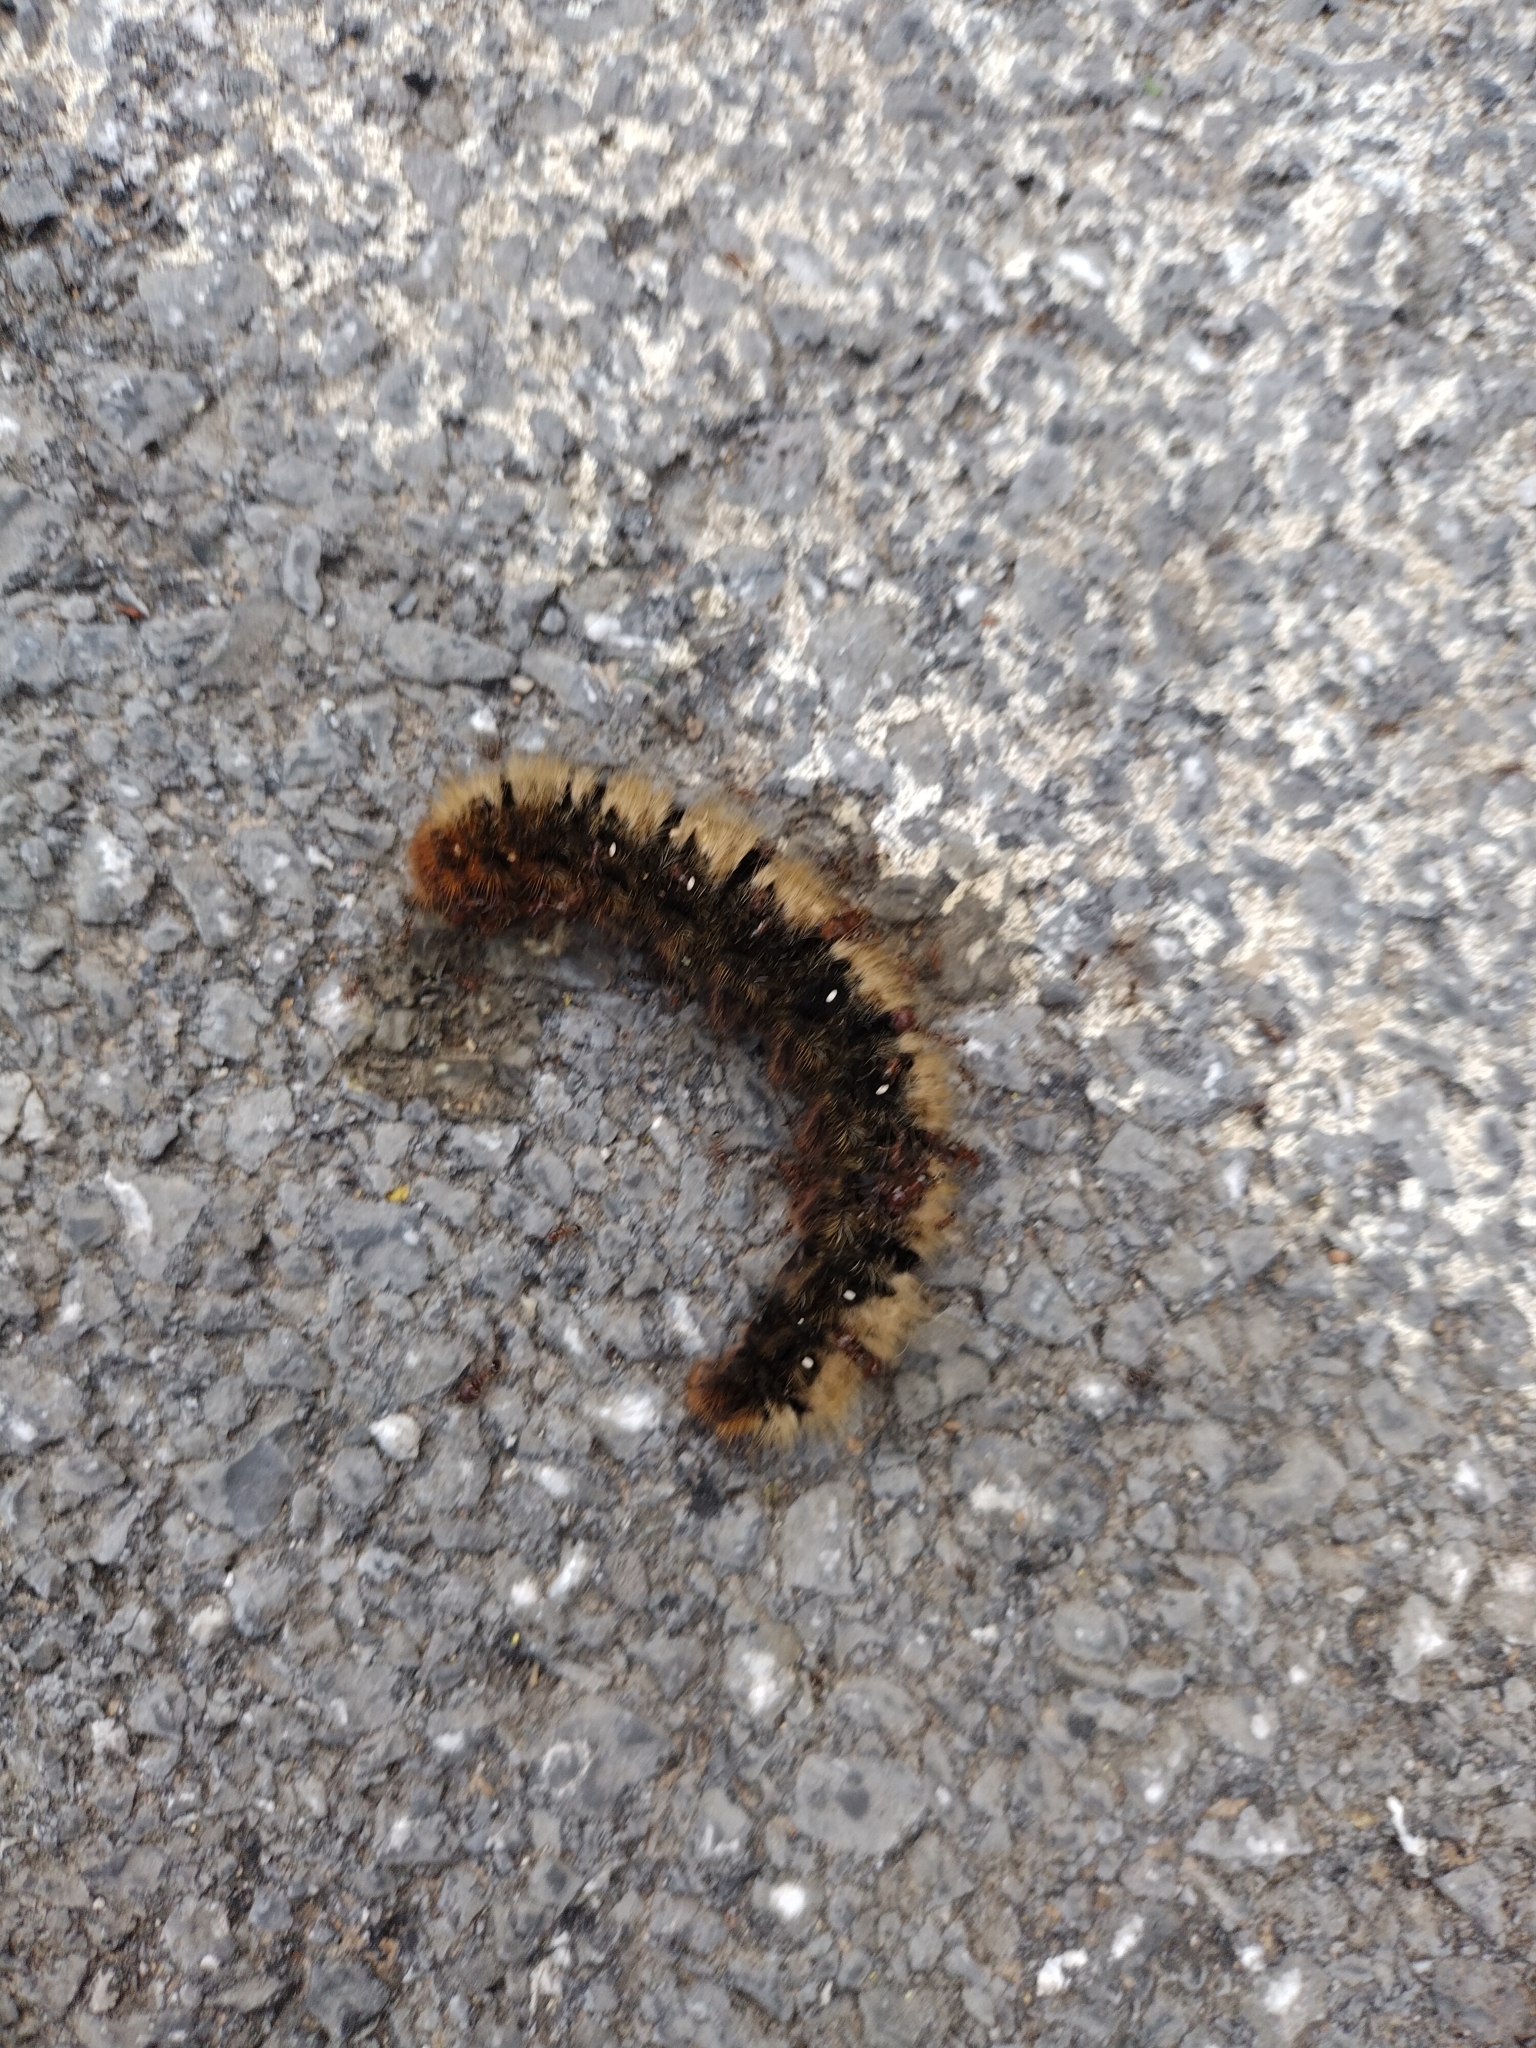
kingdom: Animalia
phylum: Arthropoda
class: Insecta
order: Lepidoptera
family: Lasiocampidae
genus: Lasiocampa
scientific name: Lasiocampa quercus
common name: Oak eggar
